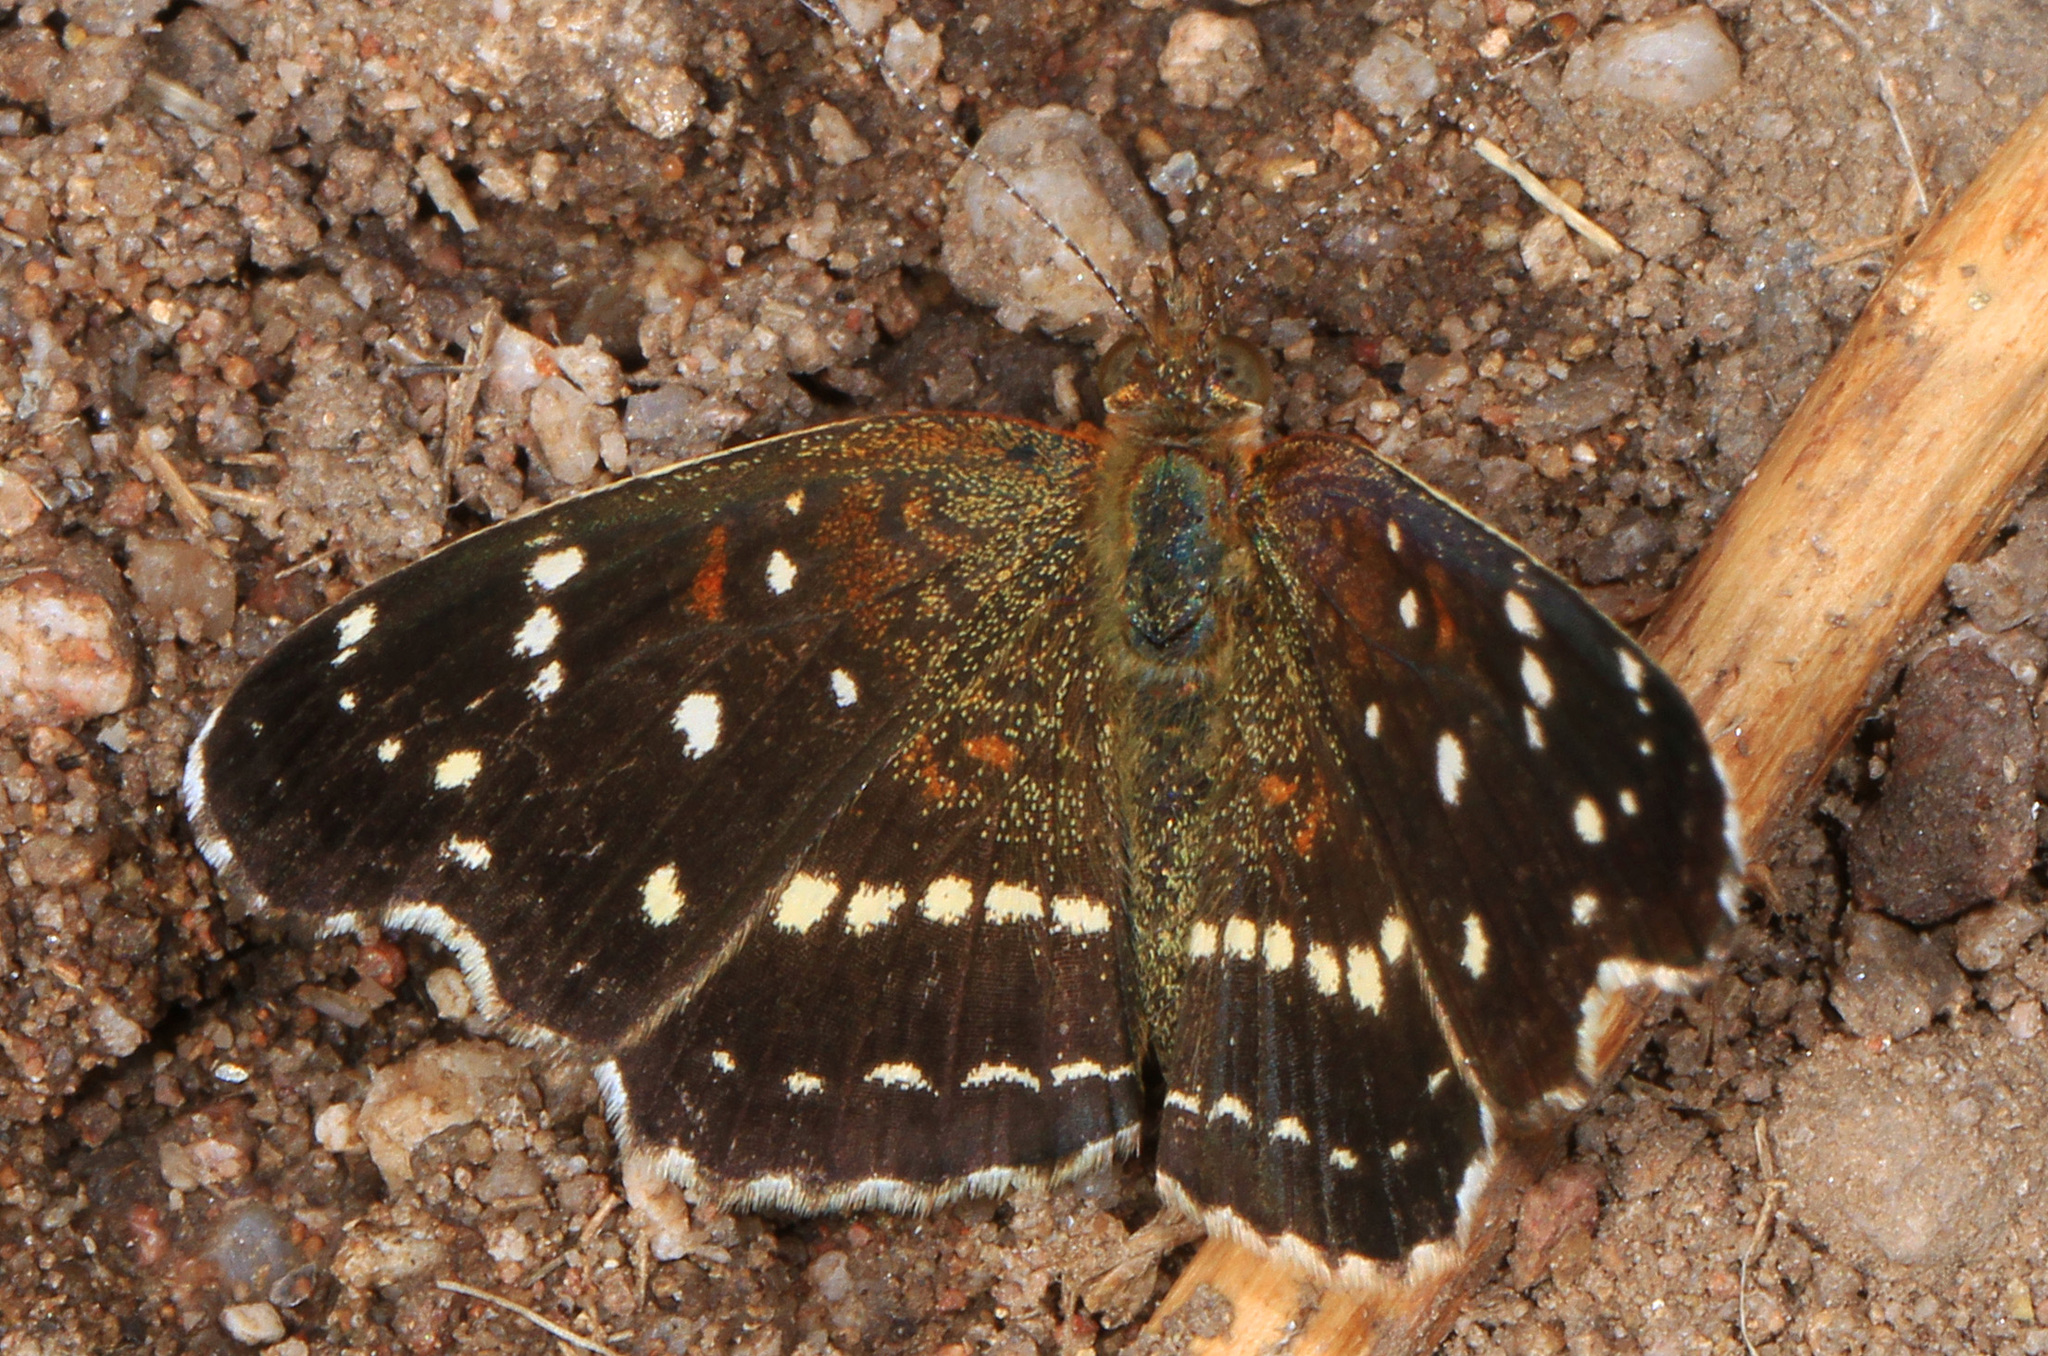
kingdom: Animalia
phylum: Arthropoda
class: Insecta
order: Lepidoptera
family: Nymphalidae
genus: Anthanassa
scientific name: Anthanassa texana
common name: Texan crescent
